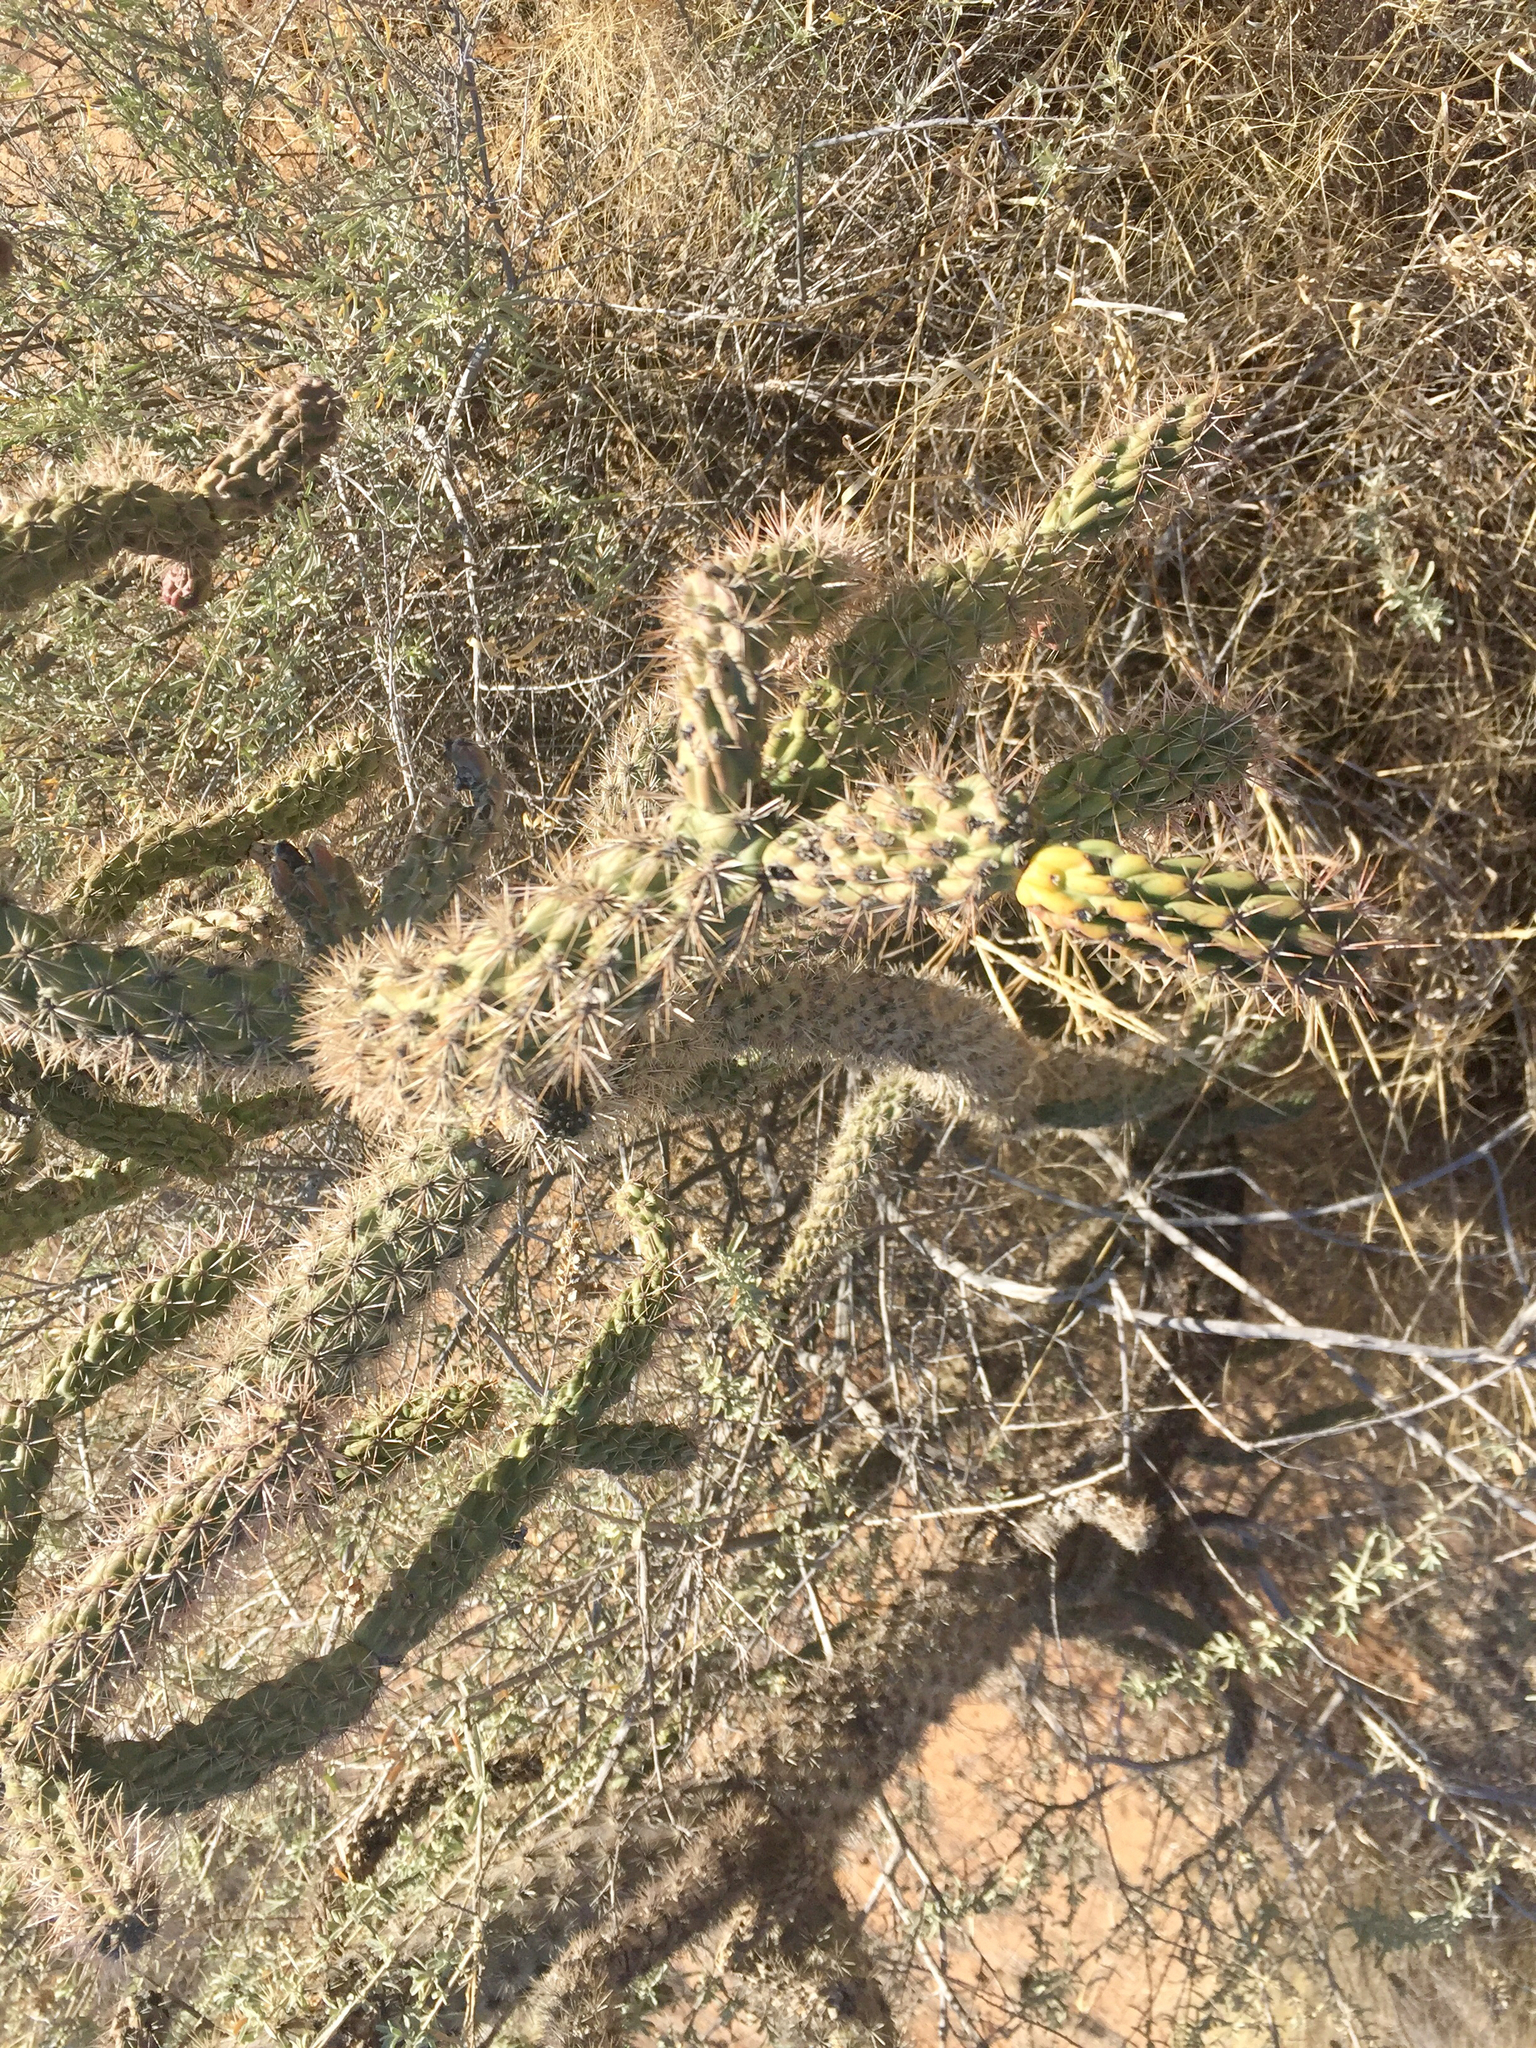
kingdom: Plantae
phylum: Tracheophyta
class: Magnoliopsida
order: Caryophyllales
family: Cactaceae
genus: Cylindropuntia
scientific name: Cylindropuntia imbricata
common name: Candelabrum cactus
